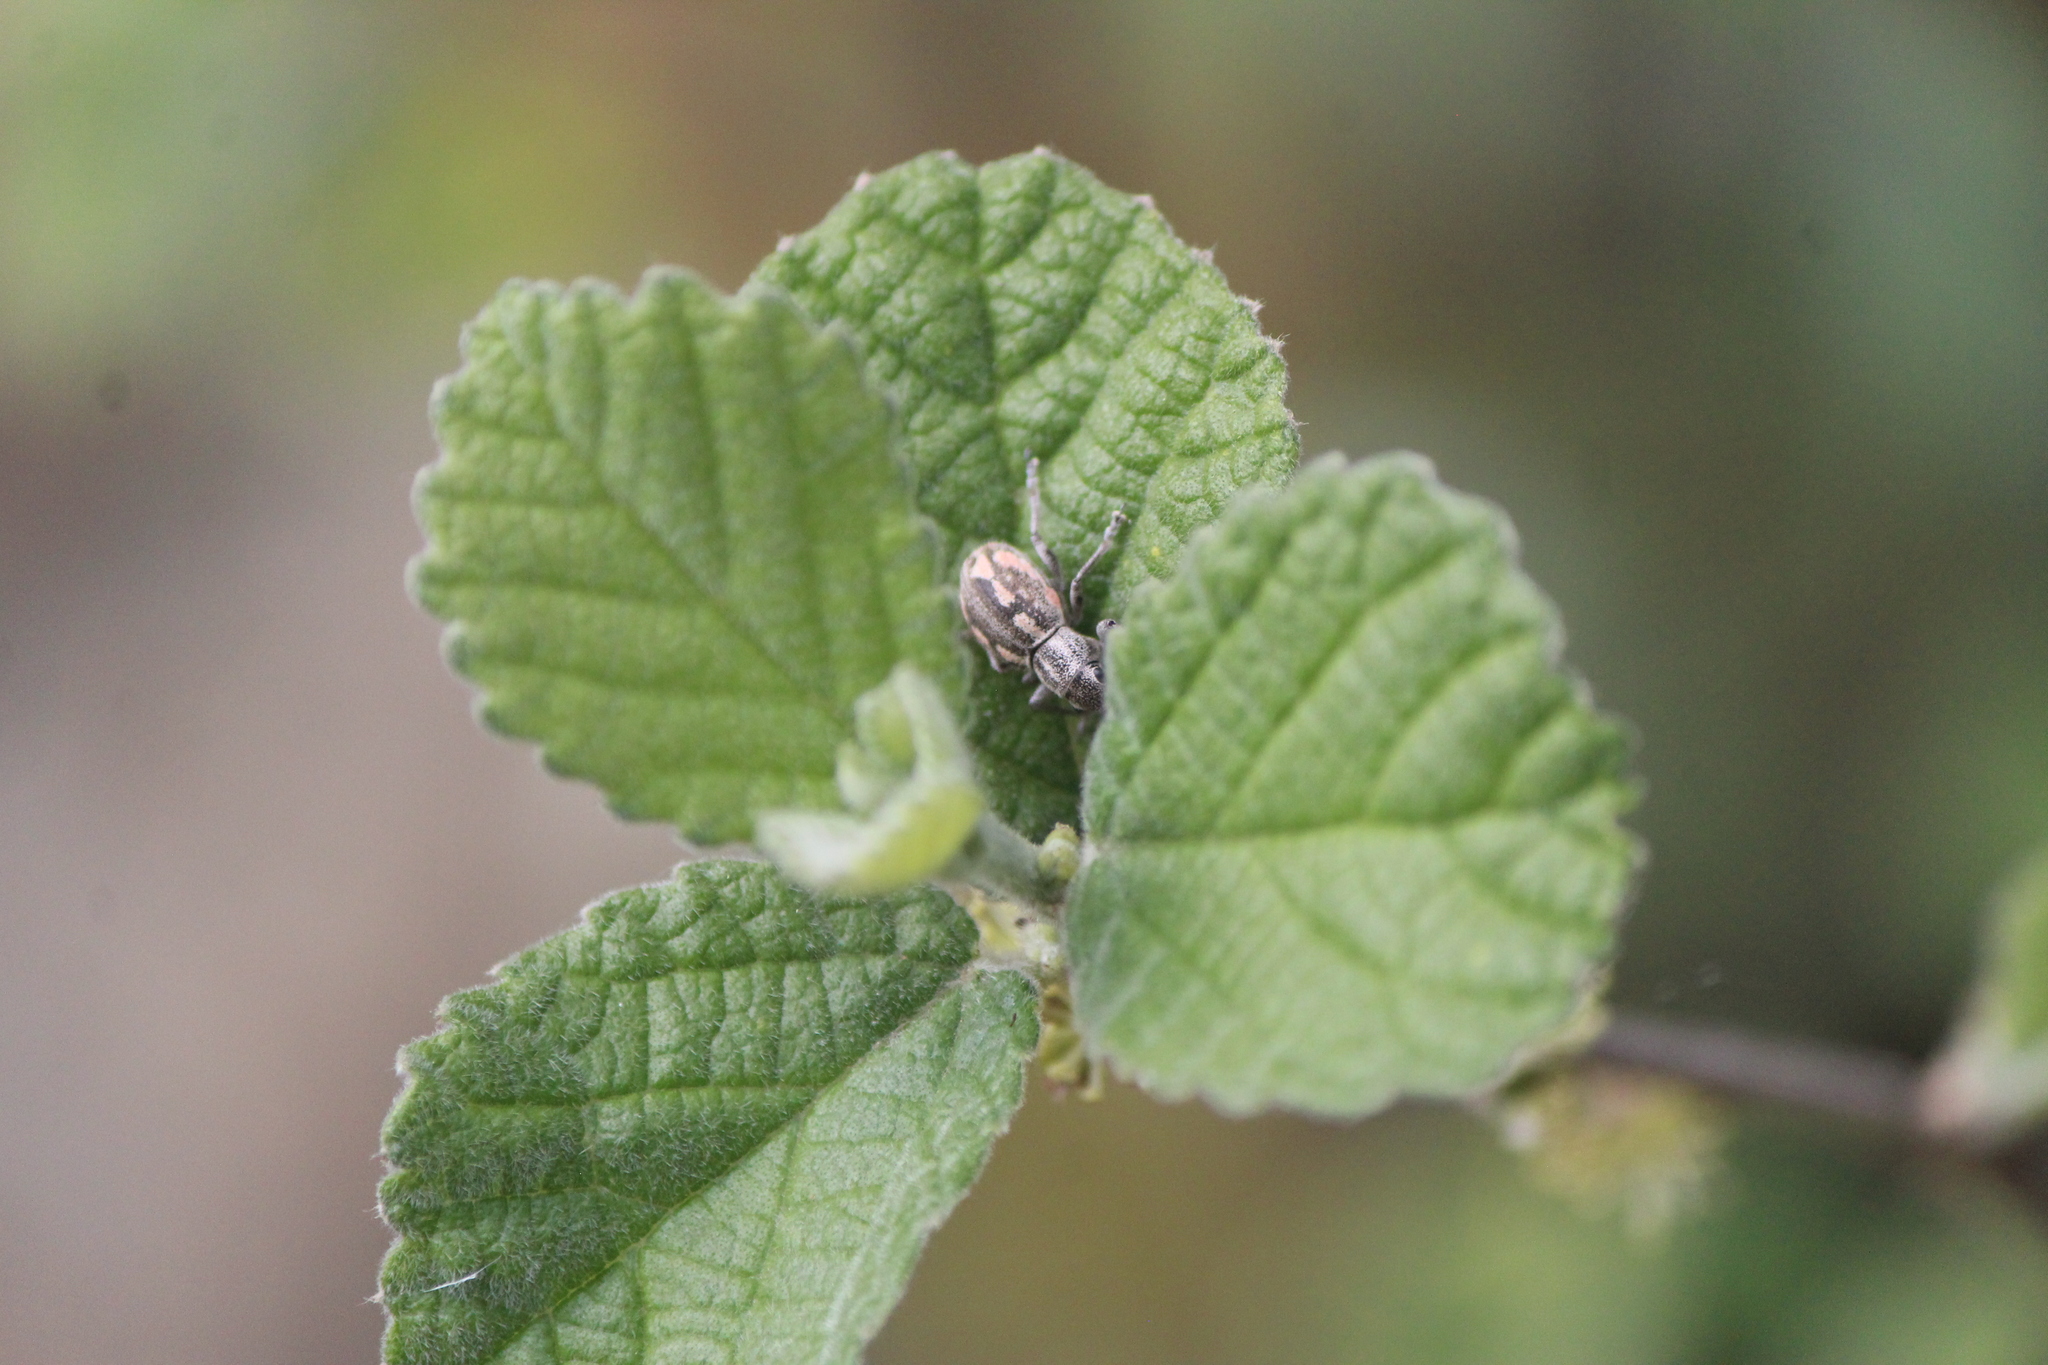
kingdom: Animalia
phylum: Arthropoda
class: Insecta
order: Coleoptera
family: Curculionidae
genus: Pantomorus
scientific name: Pantomorus albosignatus
